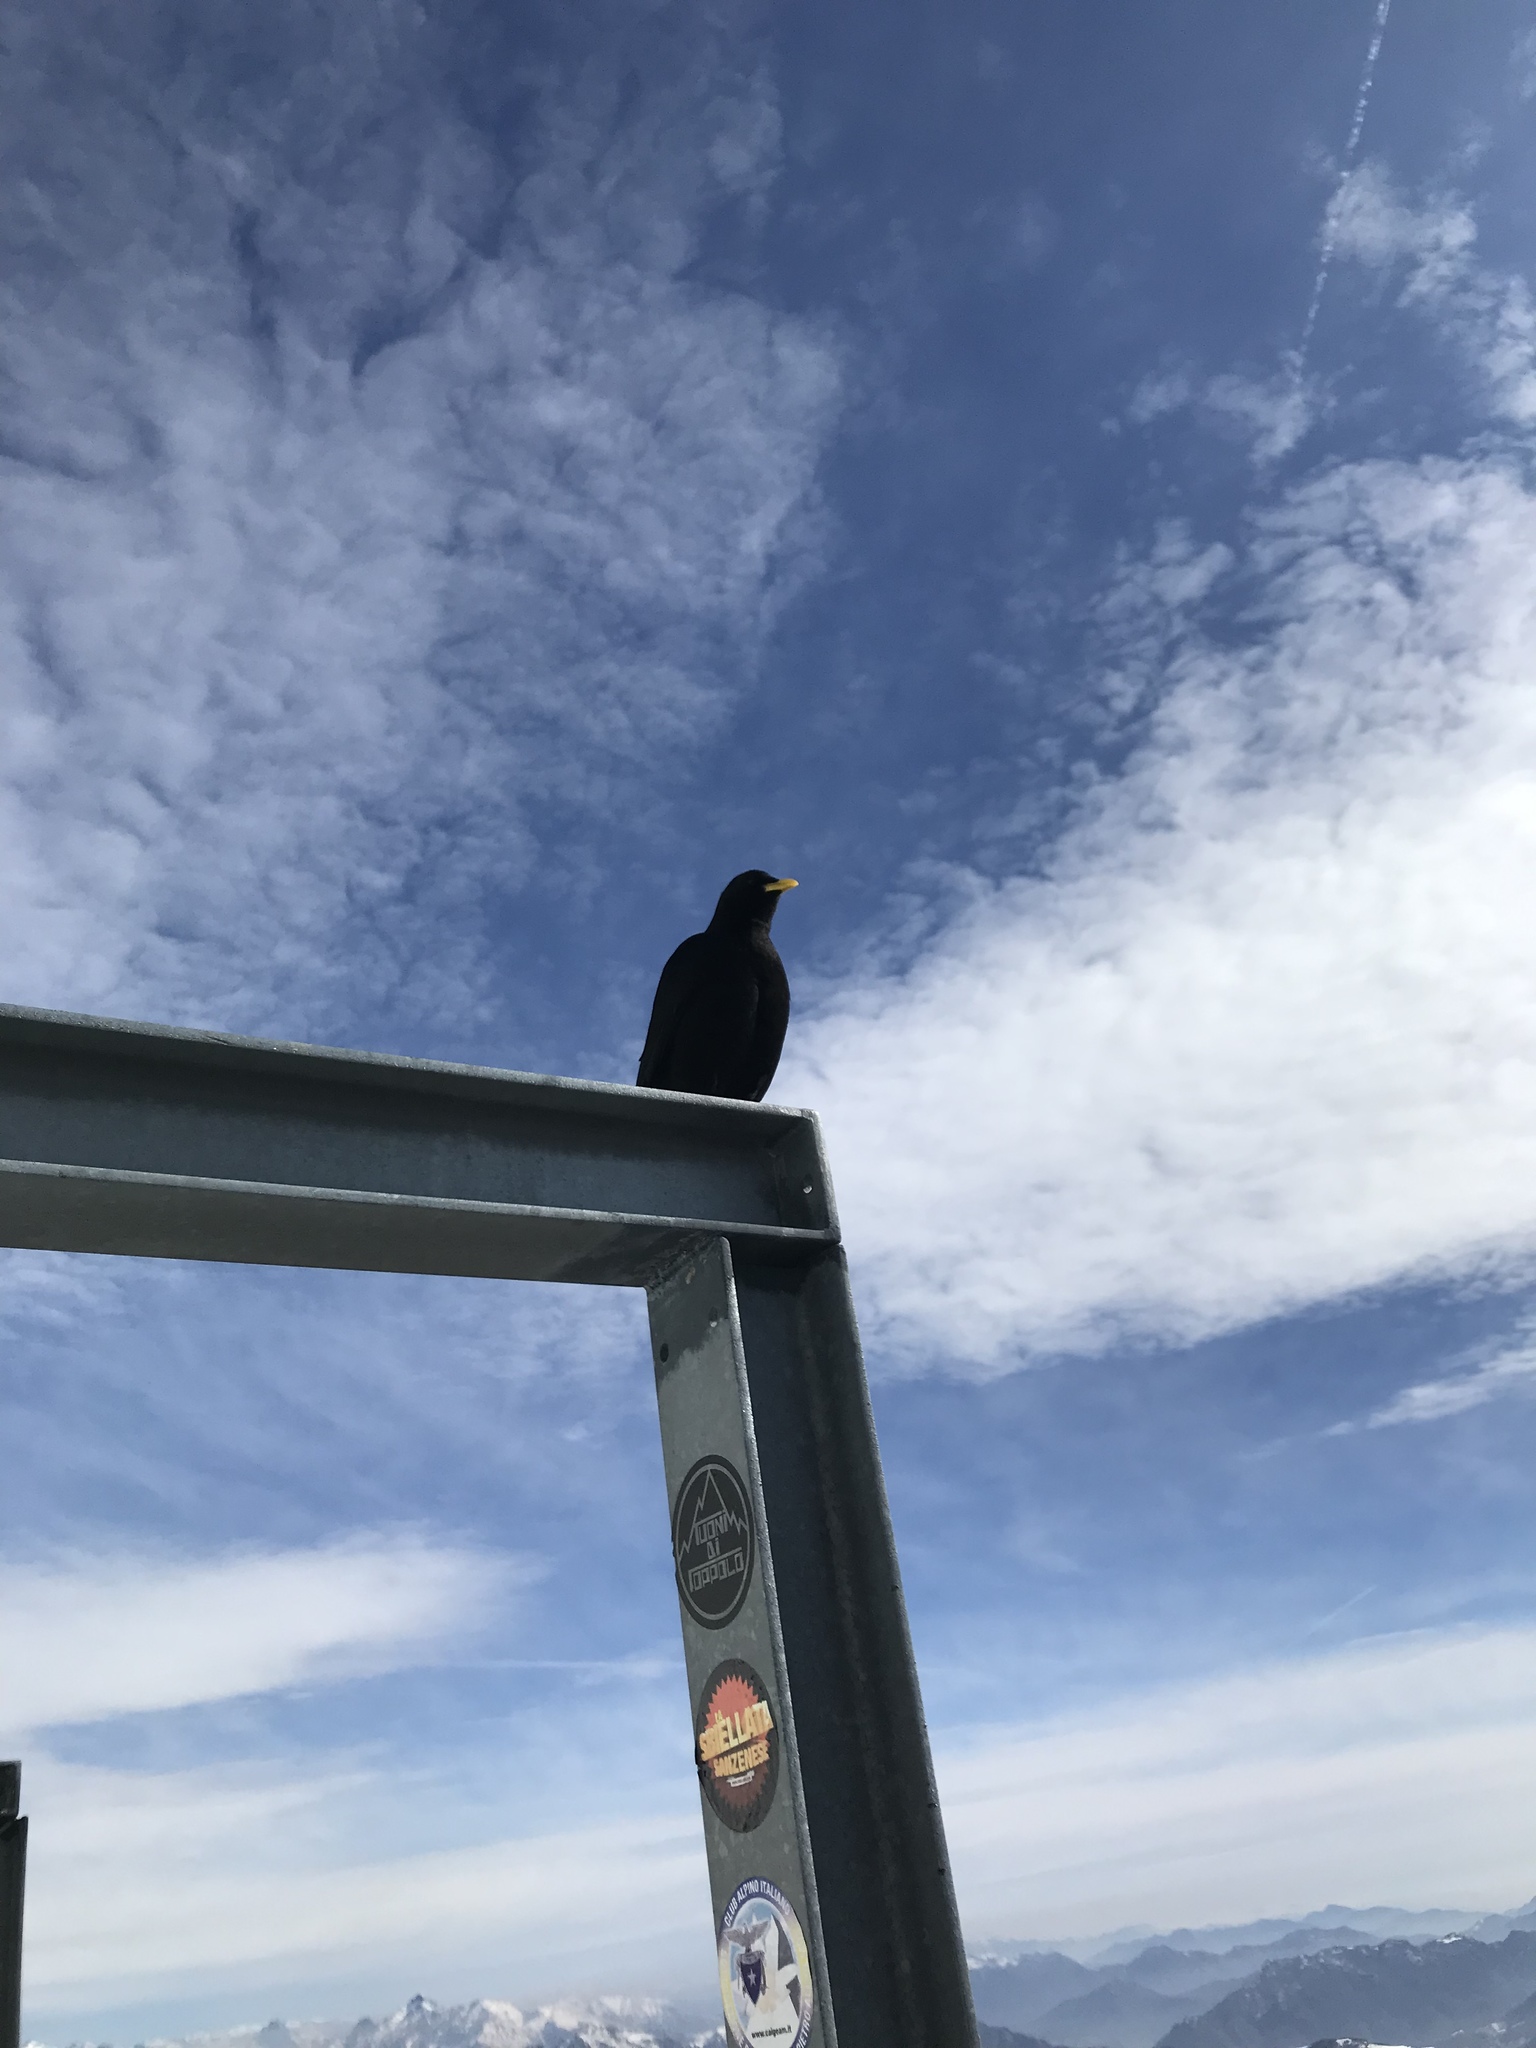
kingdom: Animalia
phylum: Chordata
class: Aves
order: Passeriformes
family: Corvidae
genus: Pyrrhocorax
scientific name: Pyrrhocorax graculus
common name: Alpine chough
